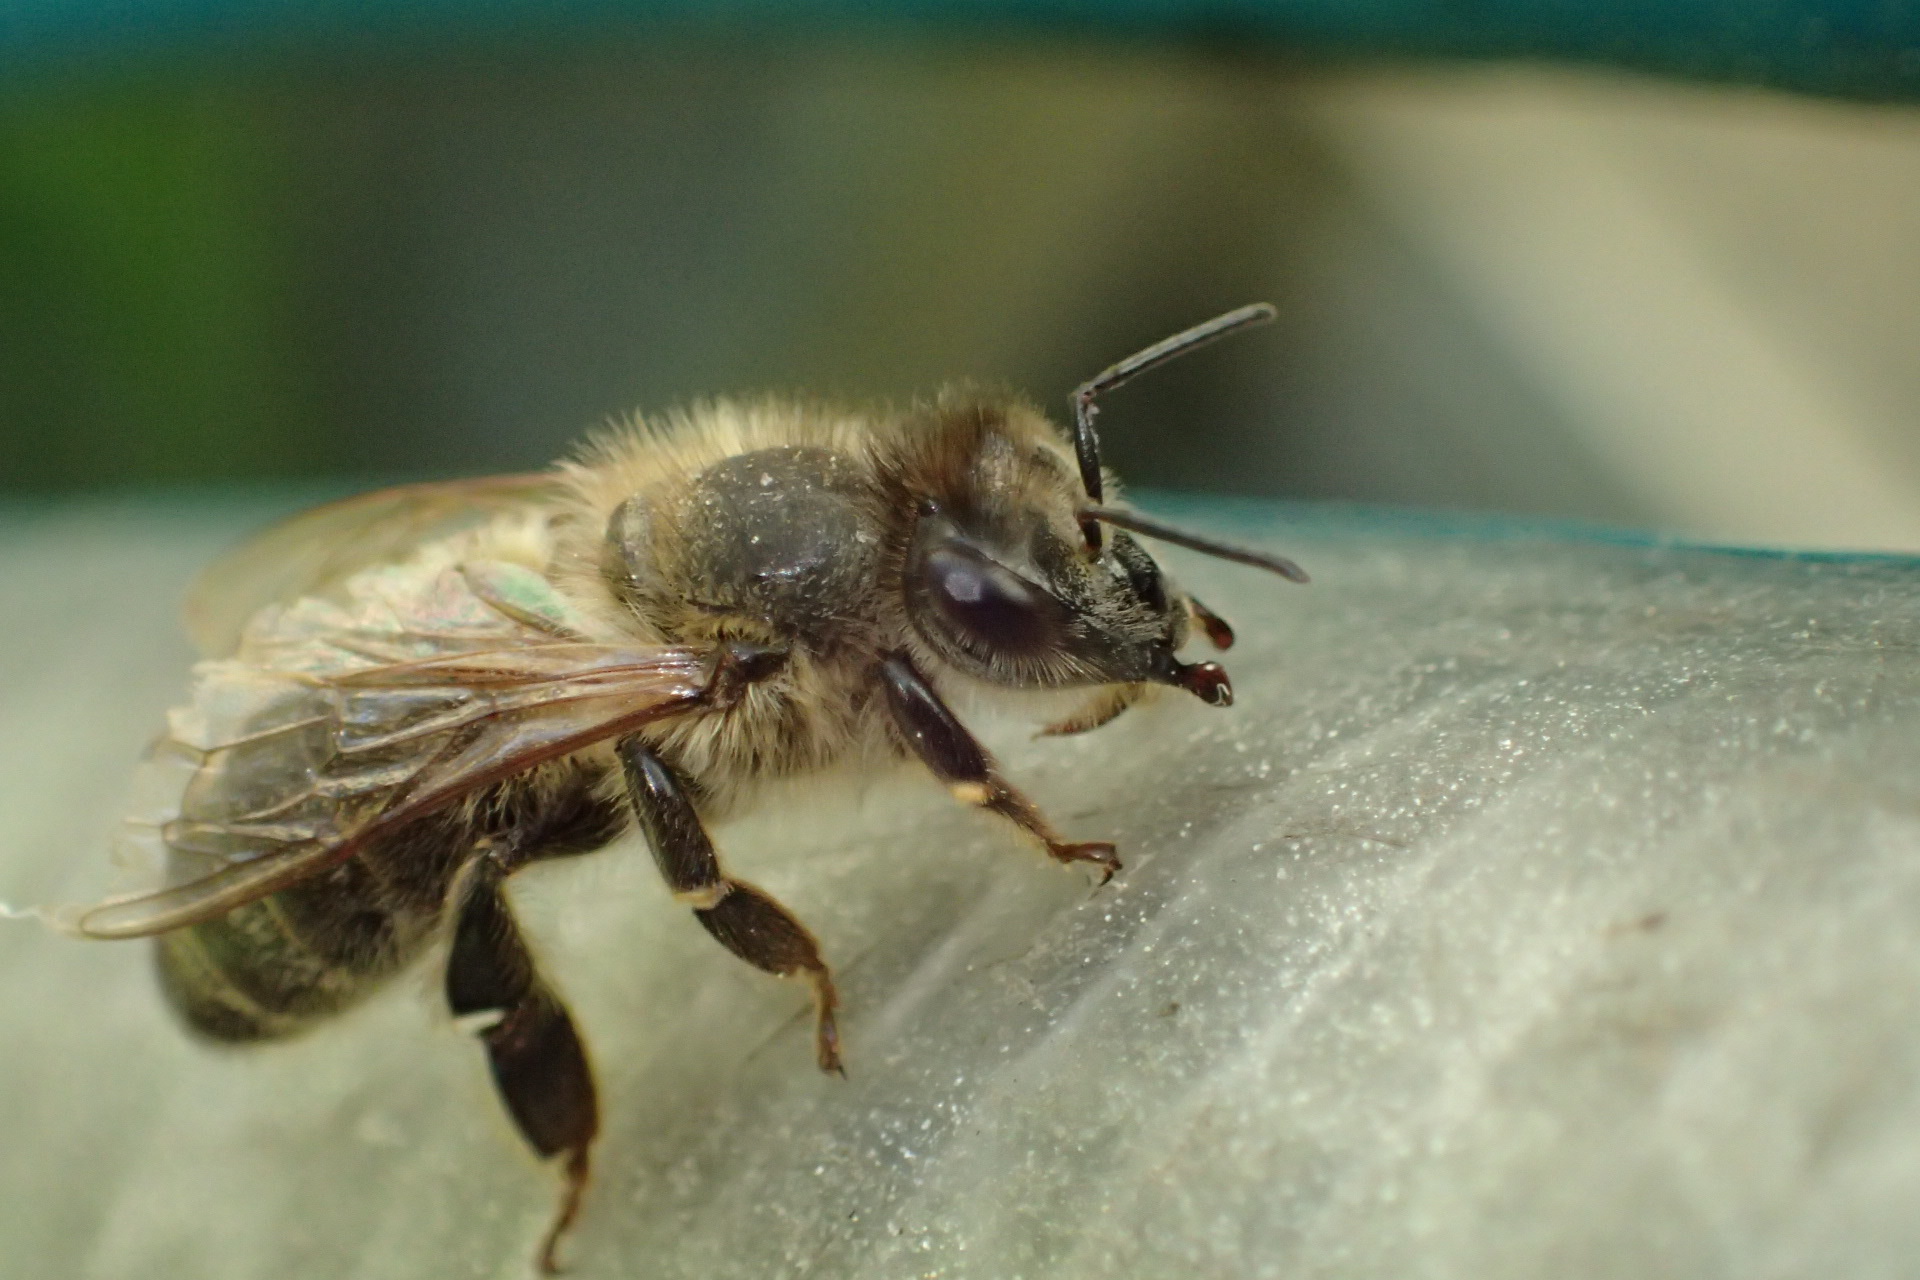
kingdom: Animalia
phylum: Arthropoda
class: Insecta
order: Hymenoptera
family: Apidae
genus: Apis
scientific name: Apis mellifera
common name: Honey bee
